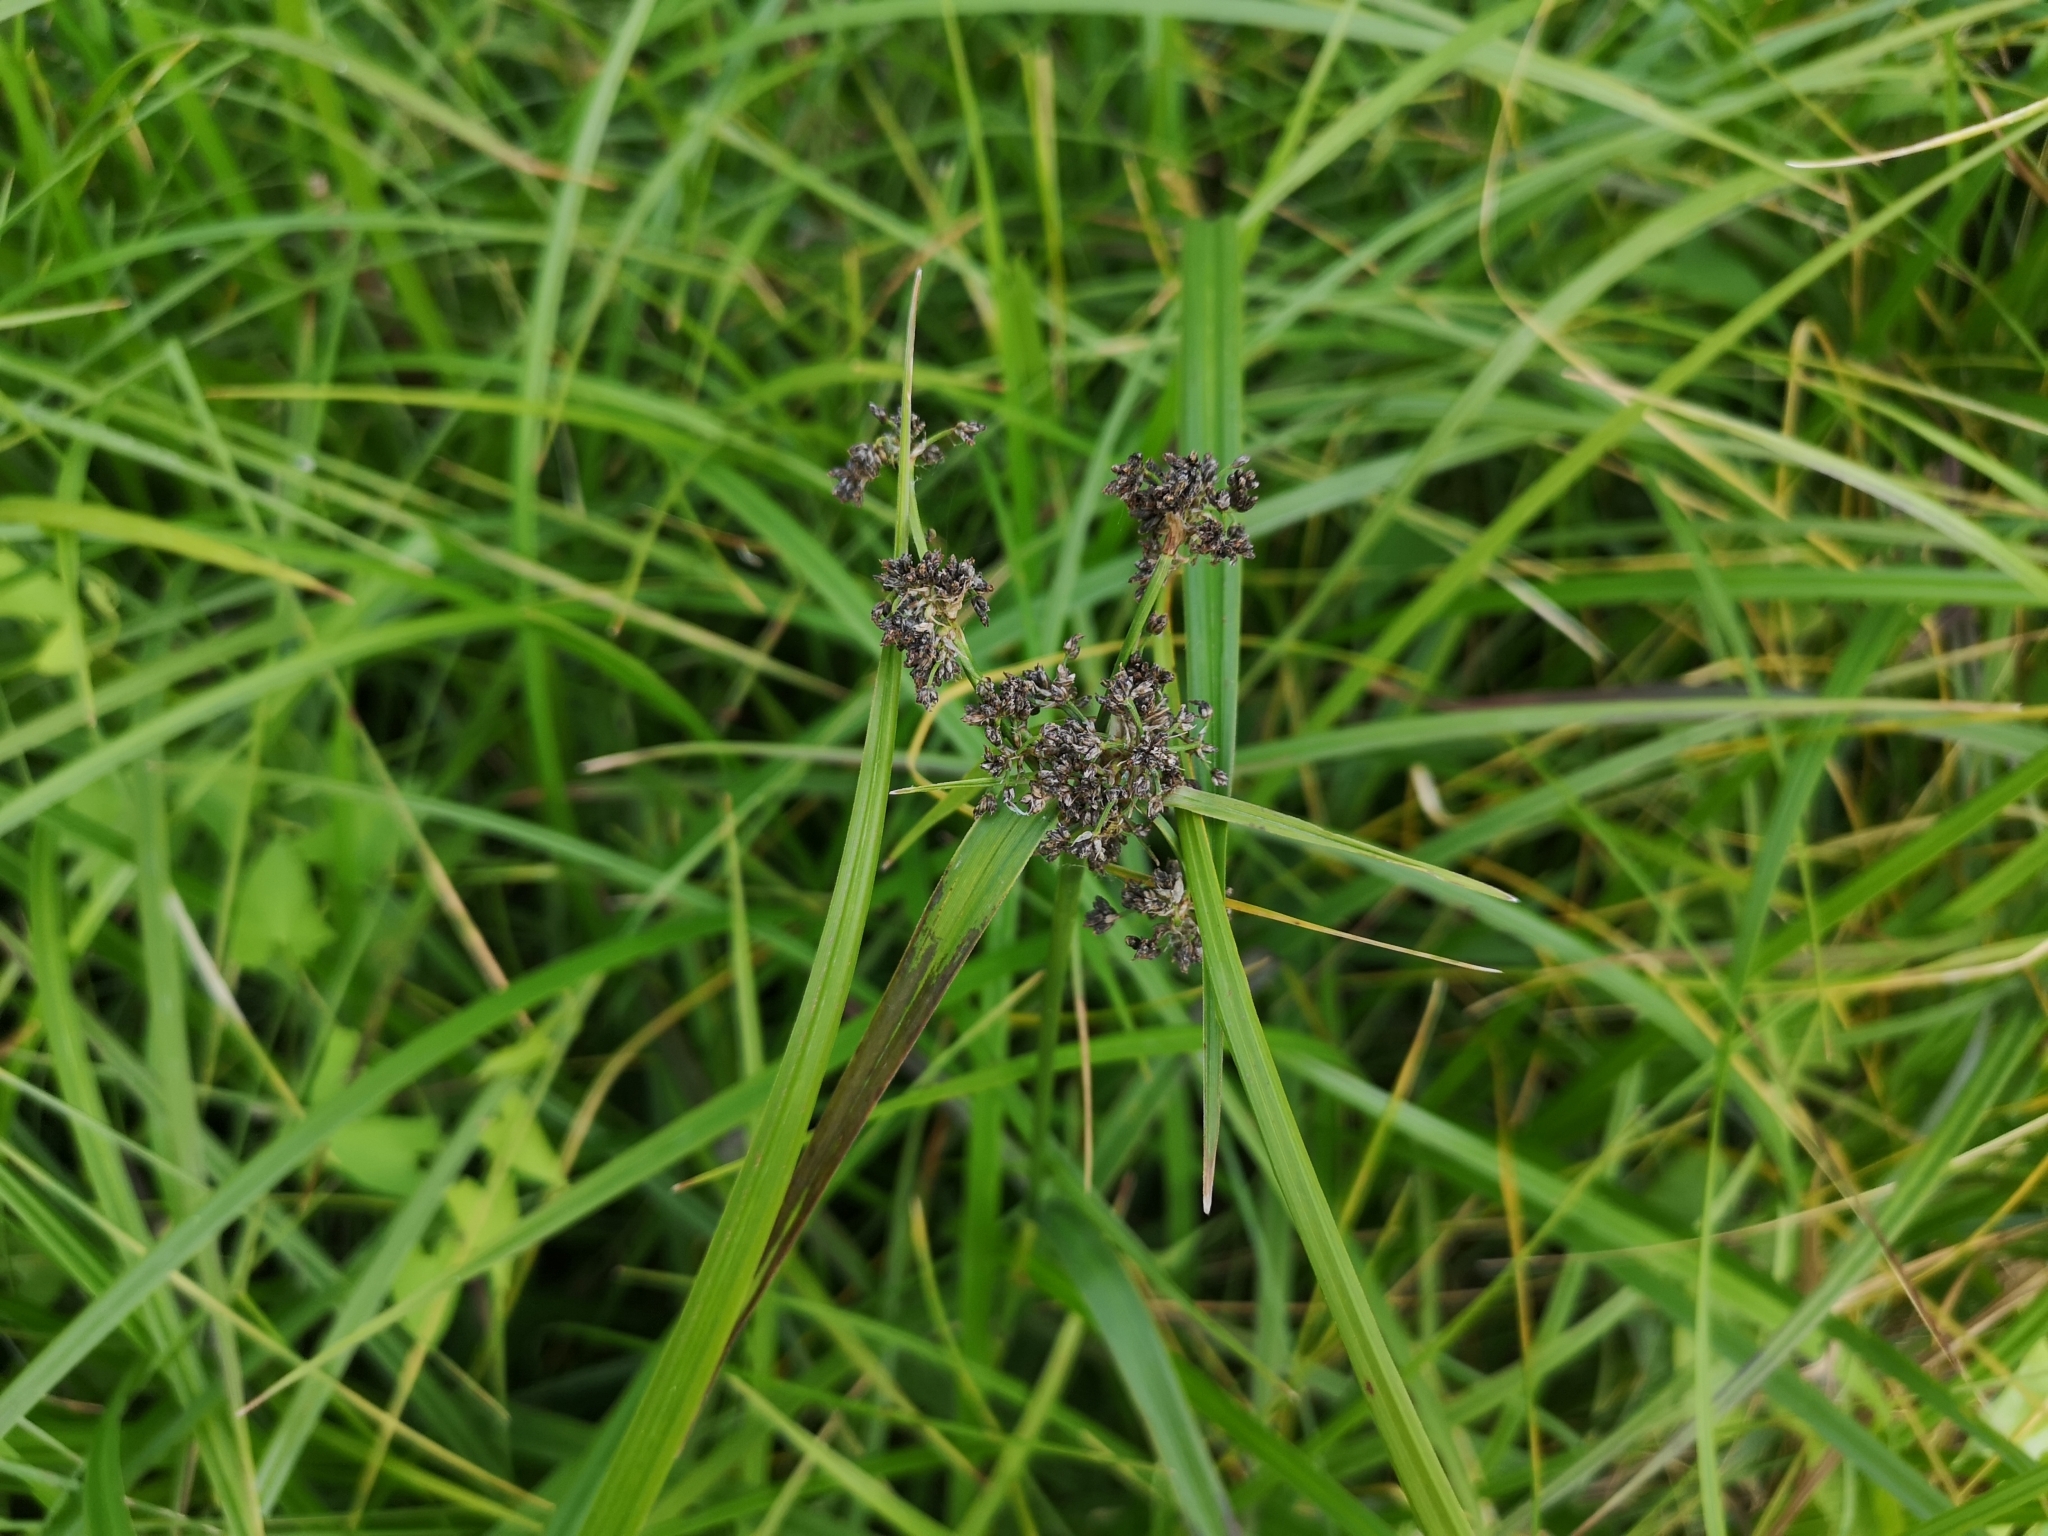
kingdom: Plantae
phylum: Tracheophyta
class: Liliopsida
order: Poales
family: Cyperaceae
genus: Scirpus
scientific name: Scirpus sylvaticus
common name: Wood club-rush
